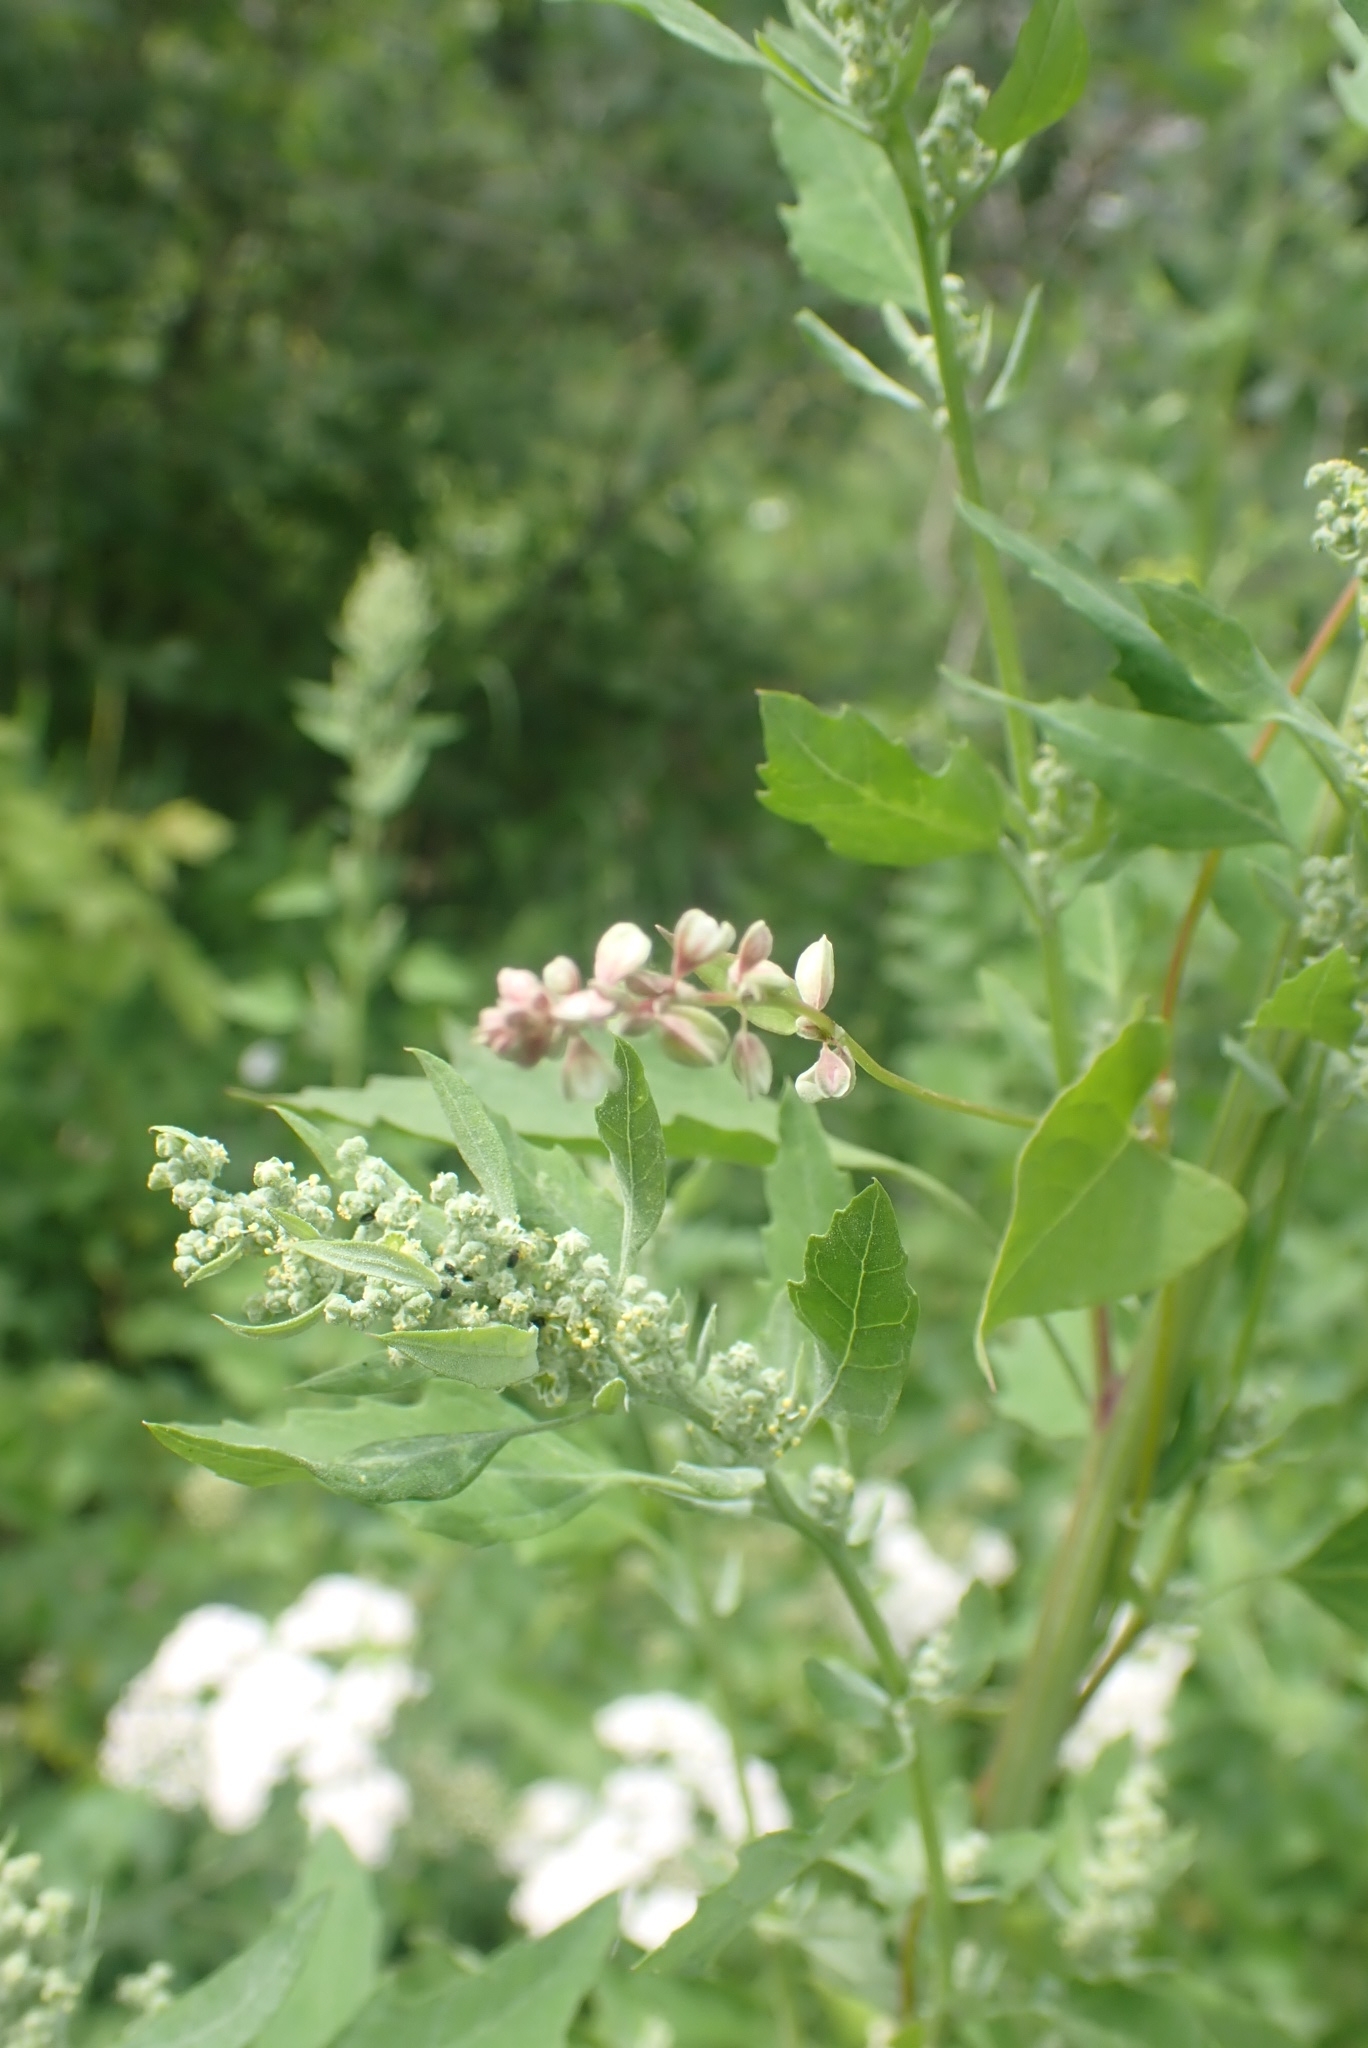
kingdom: Plantae
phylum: Tracheophyta
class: Magnoliopsida
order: Caryophyllales
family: Polygonaceae
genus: Fallopia
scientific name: Fallopia dumetorum
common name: Copse-bindweed
